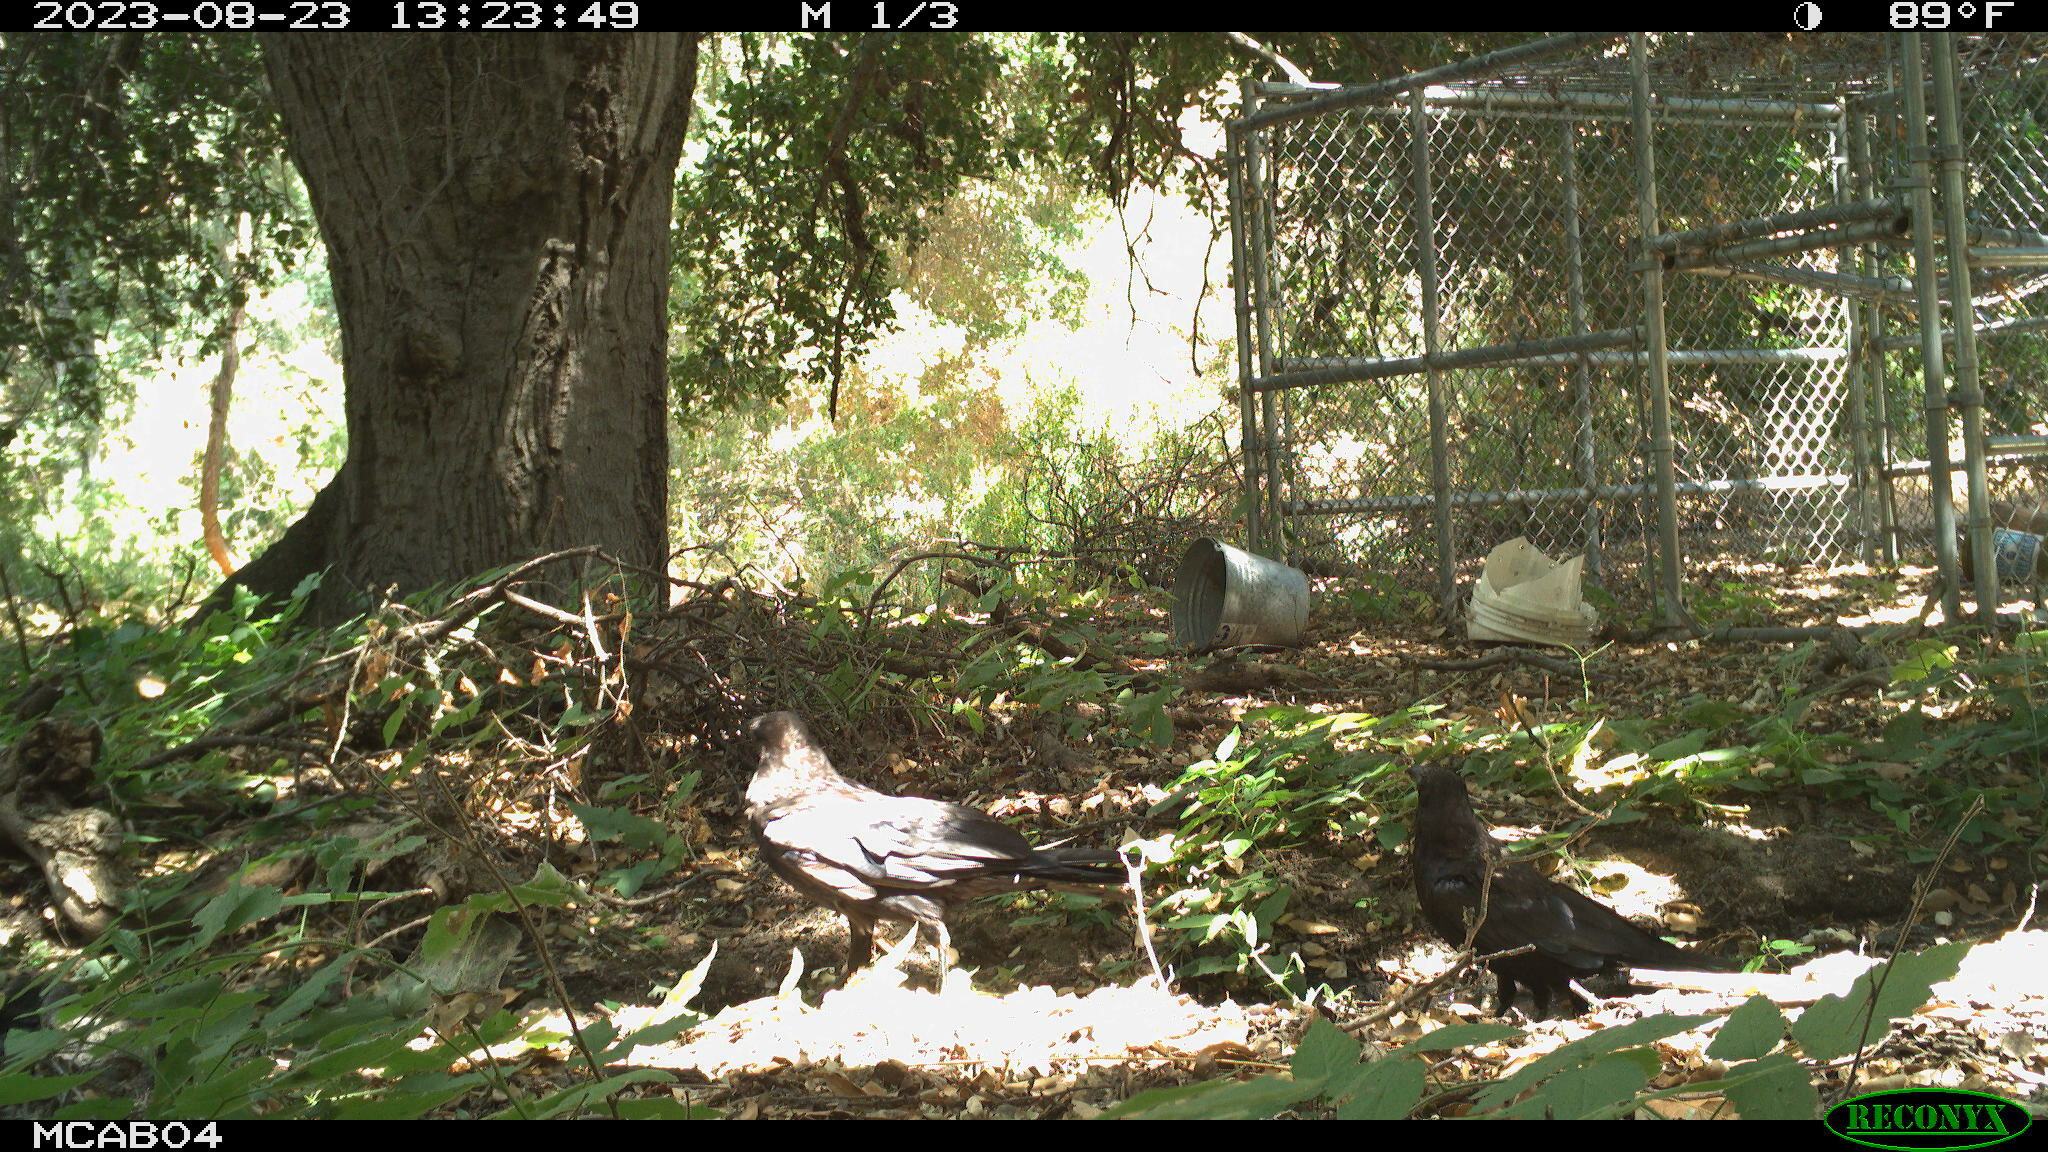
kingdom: Animalia
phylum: Chordata
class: Aves
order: Passeriformes
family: Corvidae
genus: Corvus
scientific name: Corvus corax
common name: Common raven
